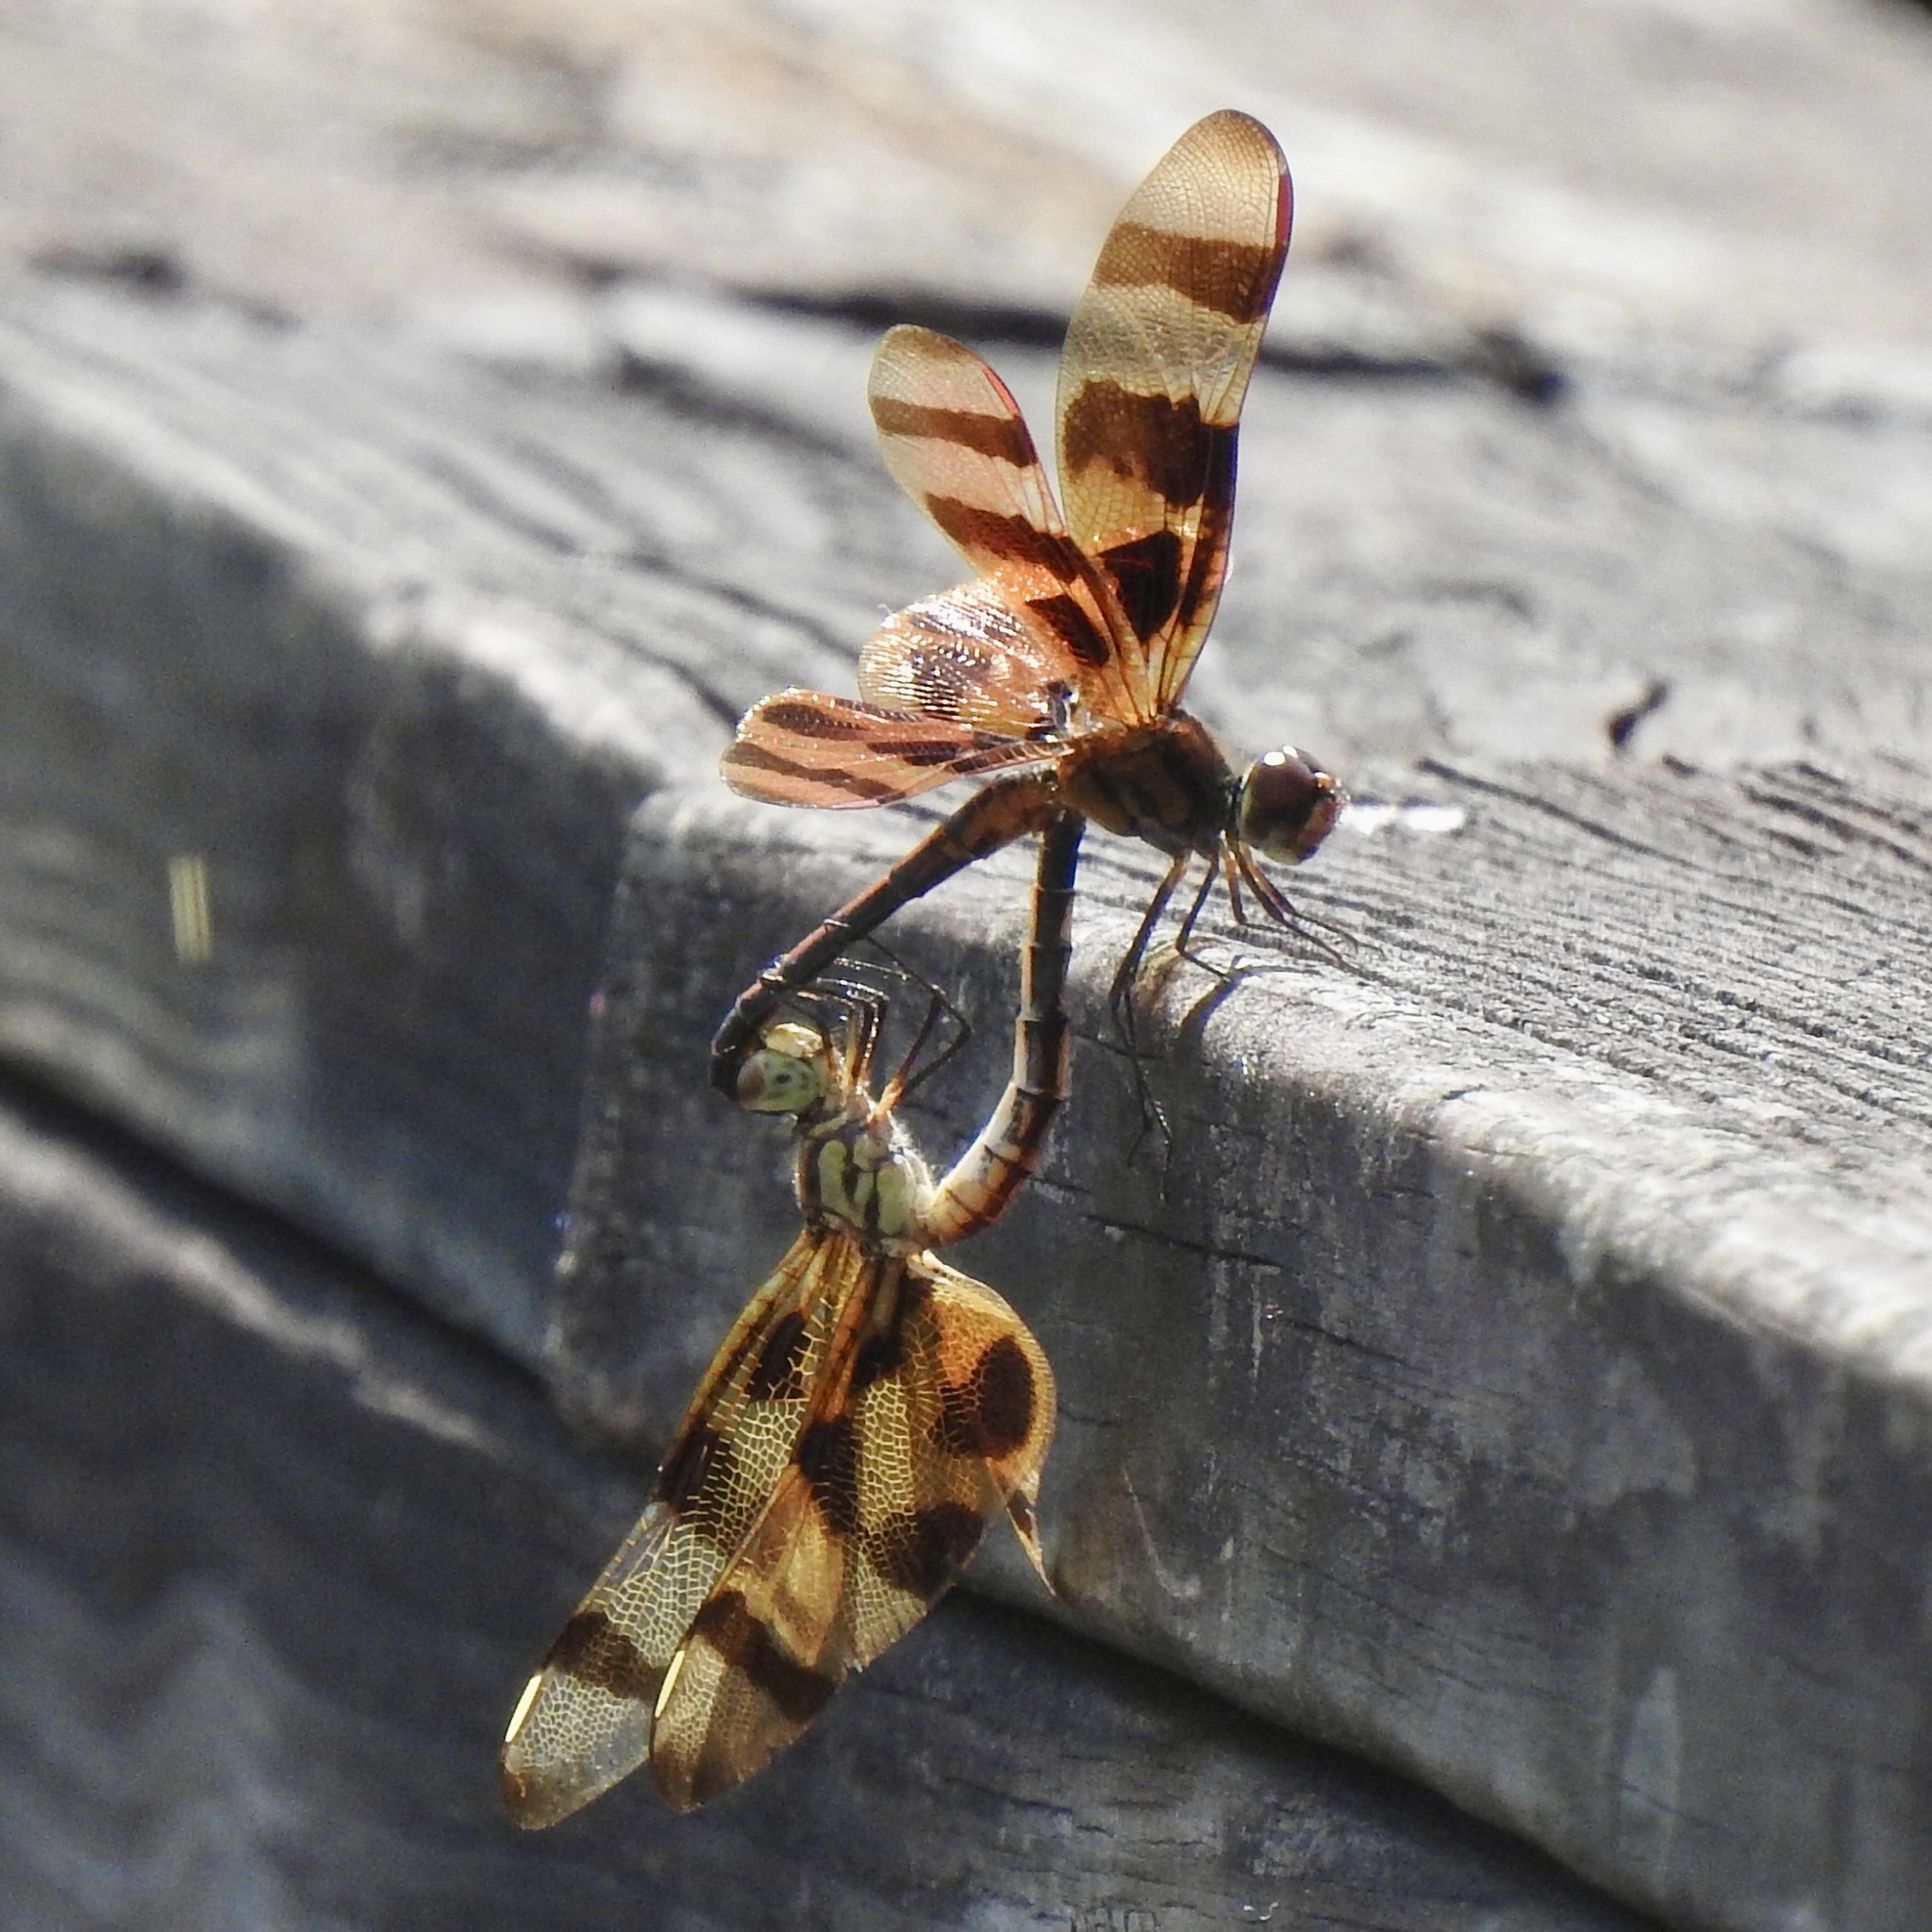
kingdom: Animalia
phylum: Arthropoda
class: Insecta
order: Odonata
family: Libellulidae
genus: Celithemis
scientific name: Celithemis eponina
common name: Halloween pennant
